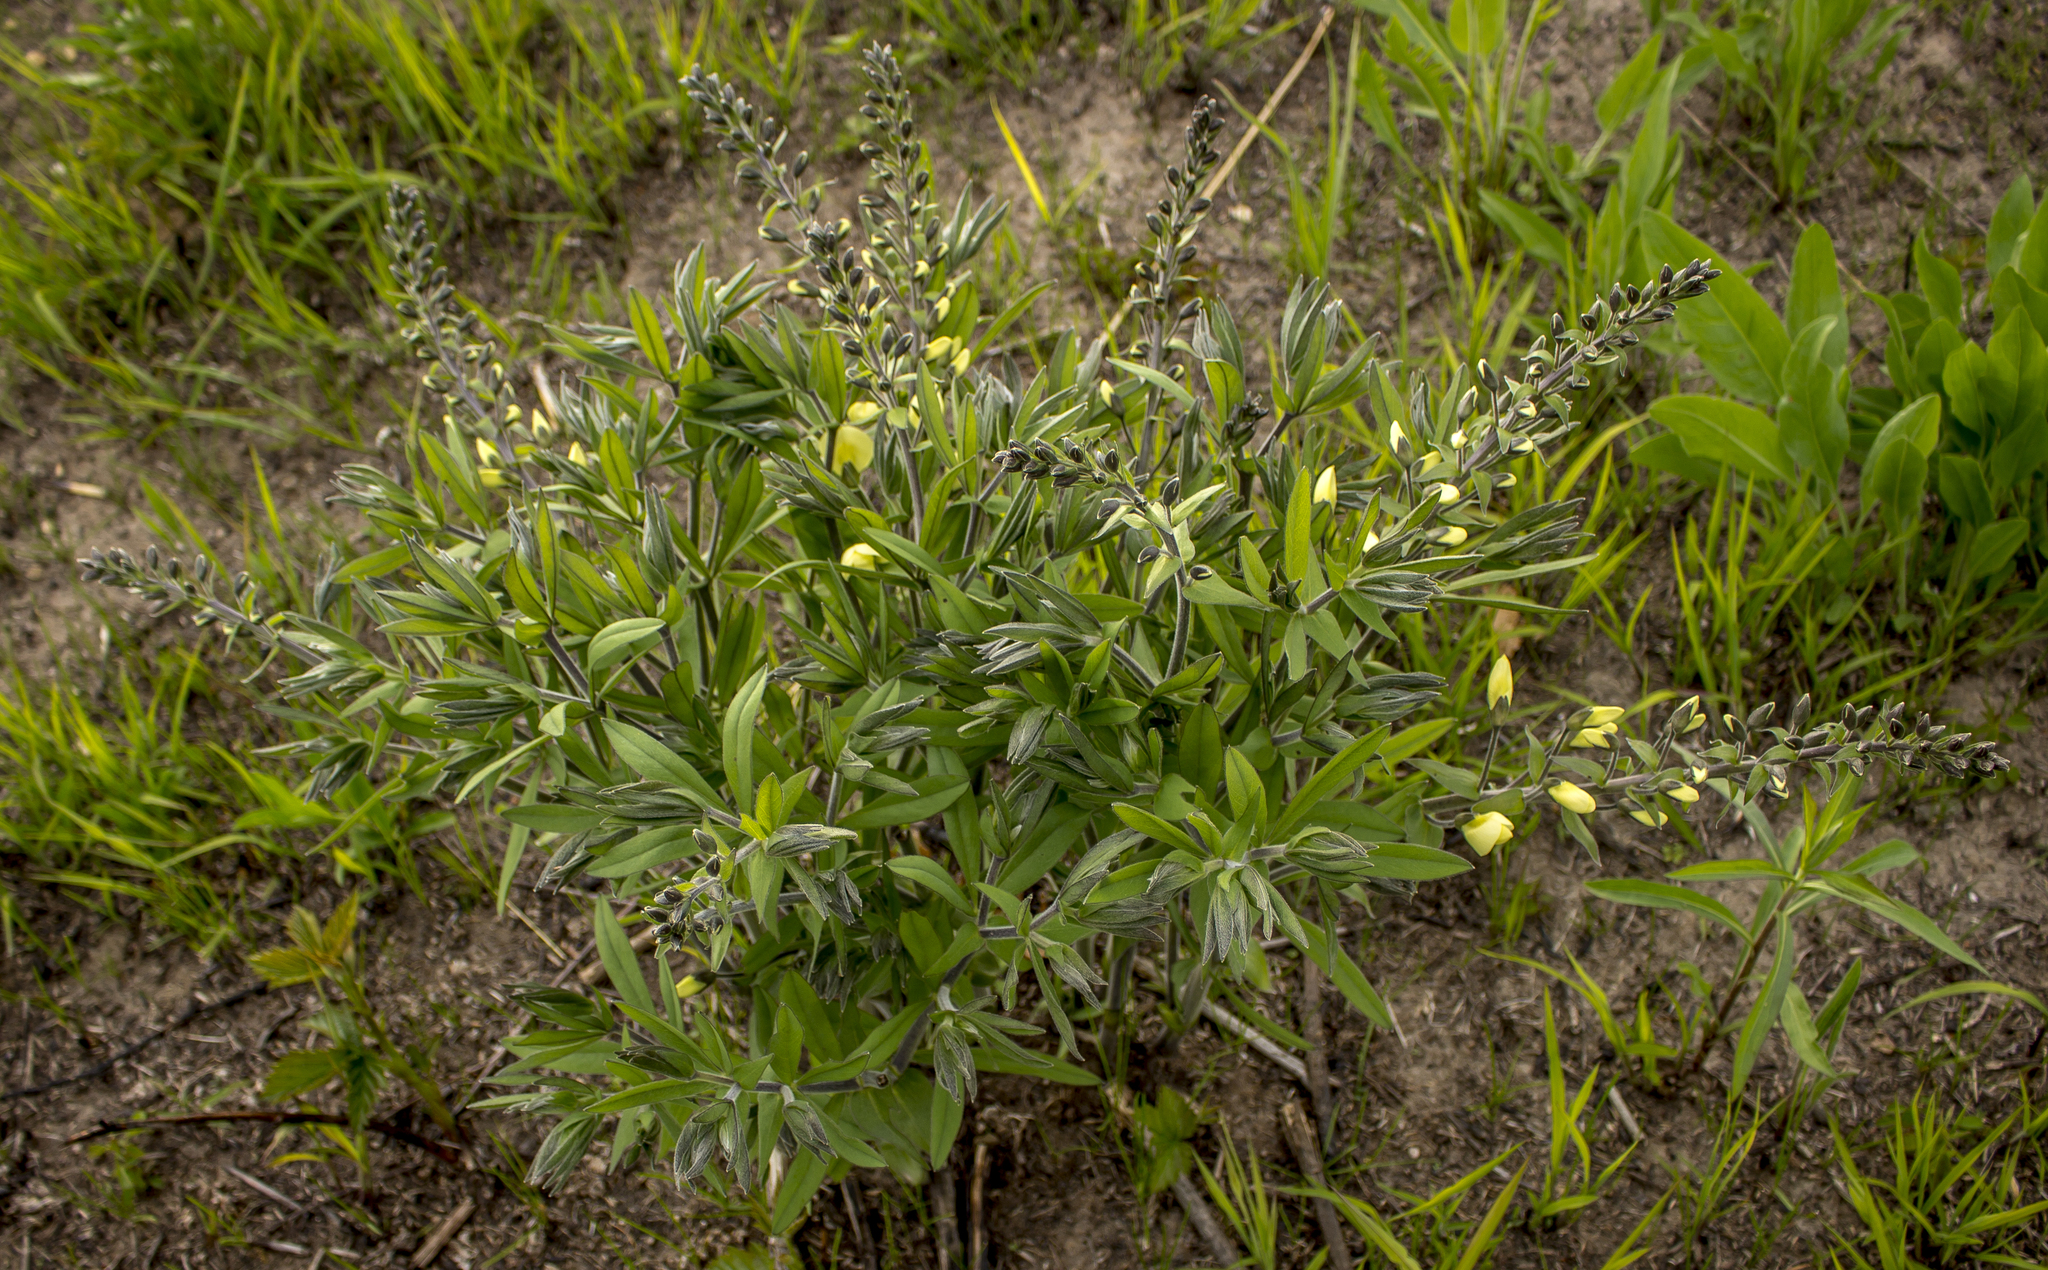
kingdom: Plantae
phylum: Tracheophyta
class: Magnoliopsida
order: Fabales
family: Fabaceae
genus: Baptisia
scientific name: Baptisia bracteata
